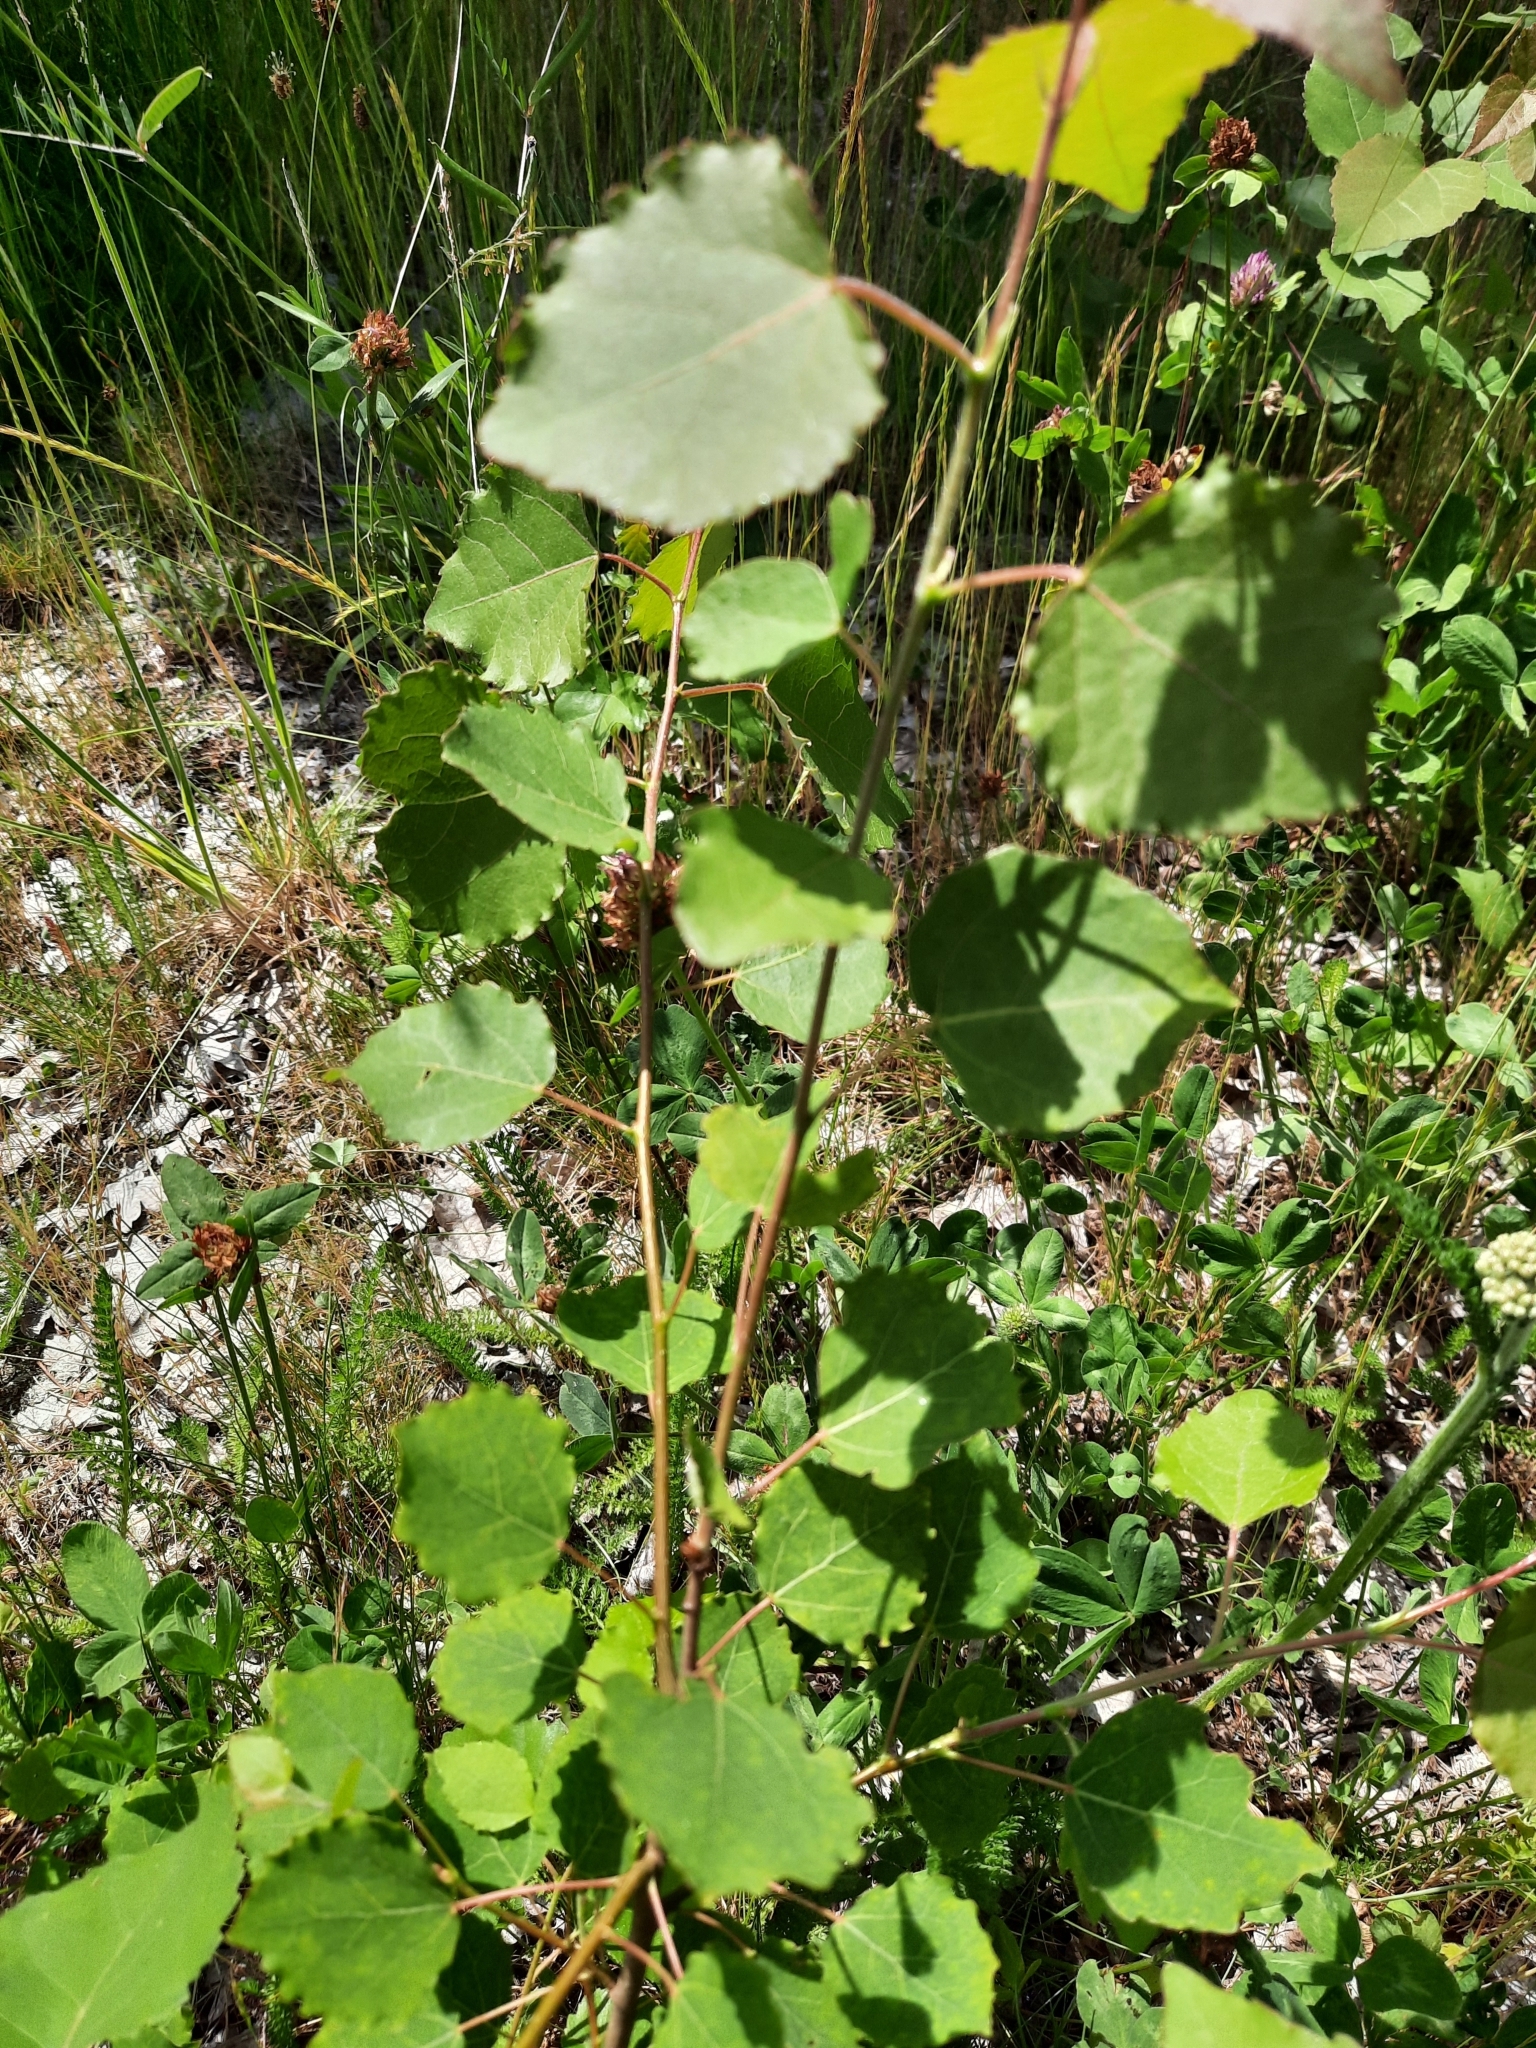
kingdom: Plantae
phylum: Tracheophyta
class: Magnoliopsida
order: Malpighiales
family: Salicaceae
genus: Populus
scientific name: Populus tremula
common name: European aspen
